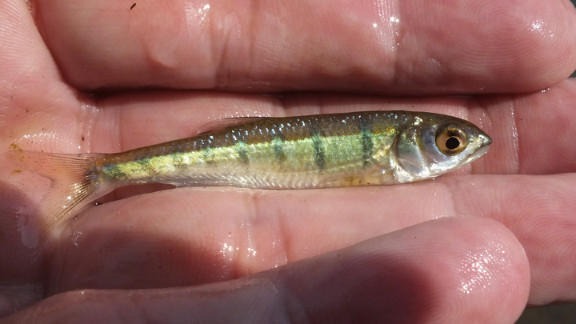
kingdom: Animalia
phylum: Chordata
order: Cypriniformes
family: Cyprinidae
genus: Opsaridium
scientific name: Opsaridium peringueyi
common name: Southern barred minnow
